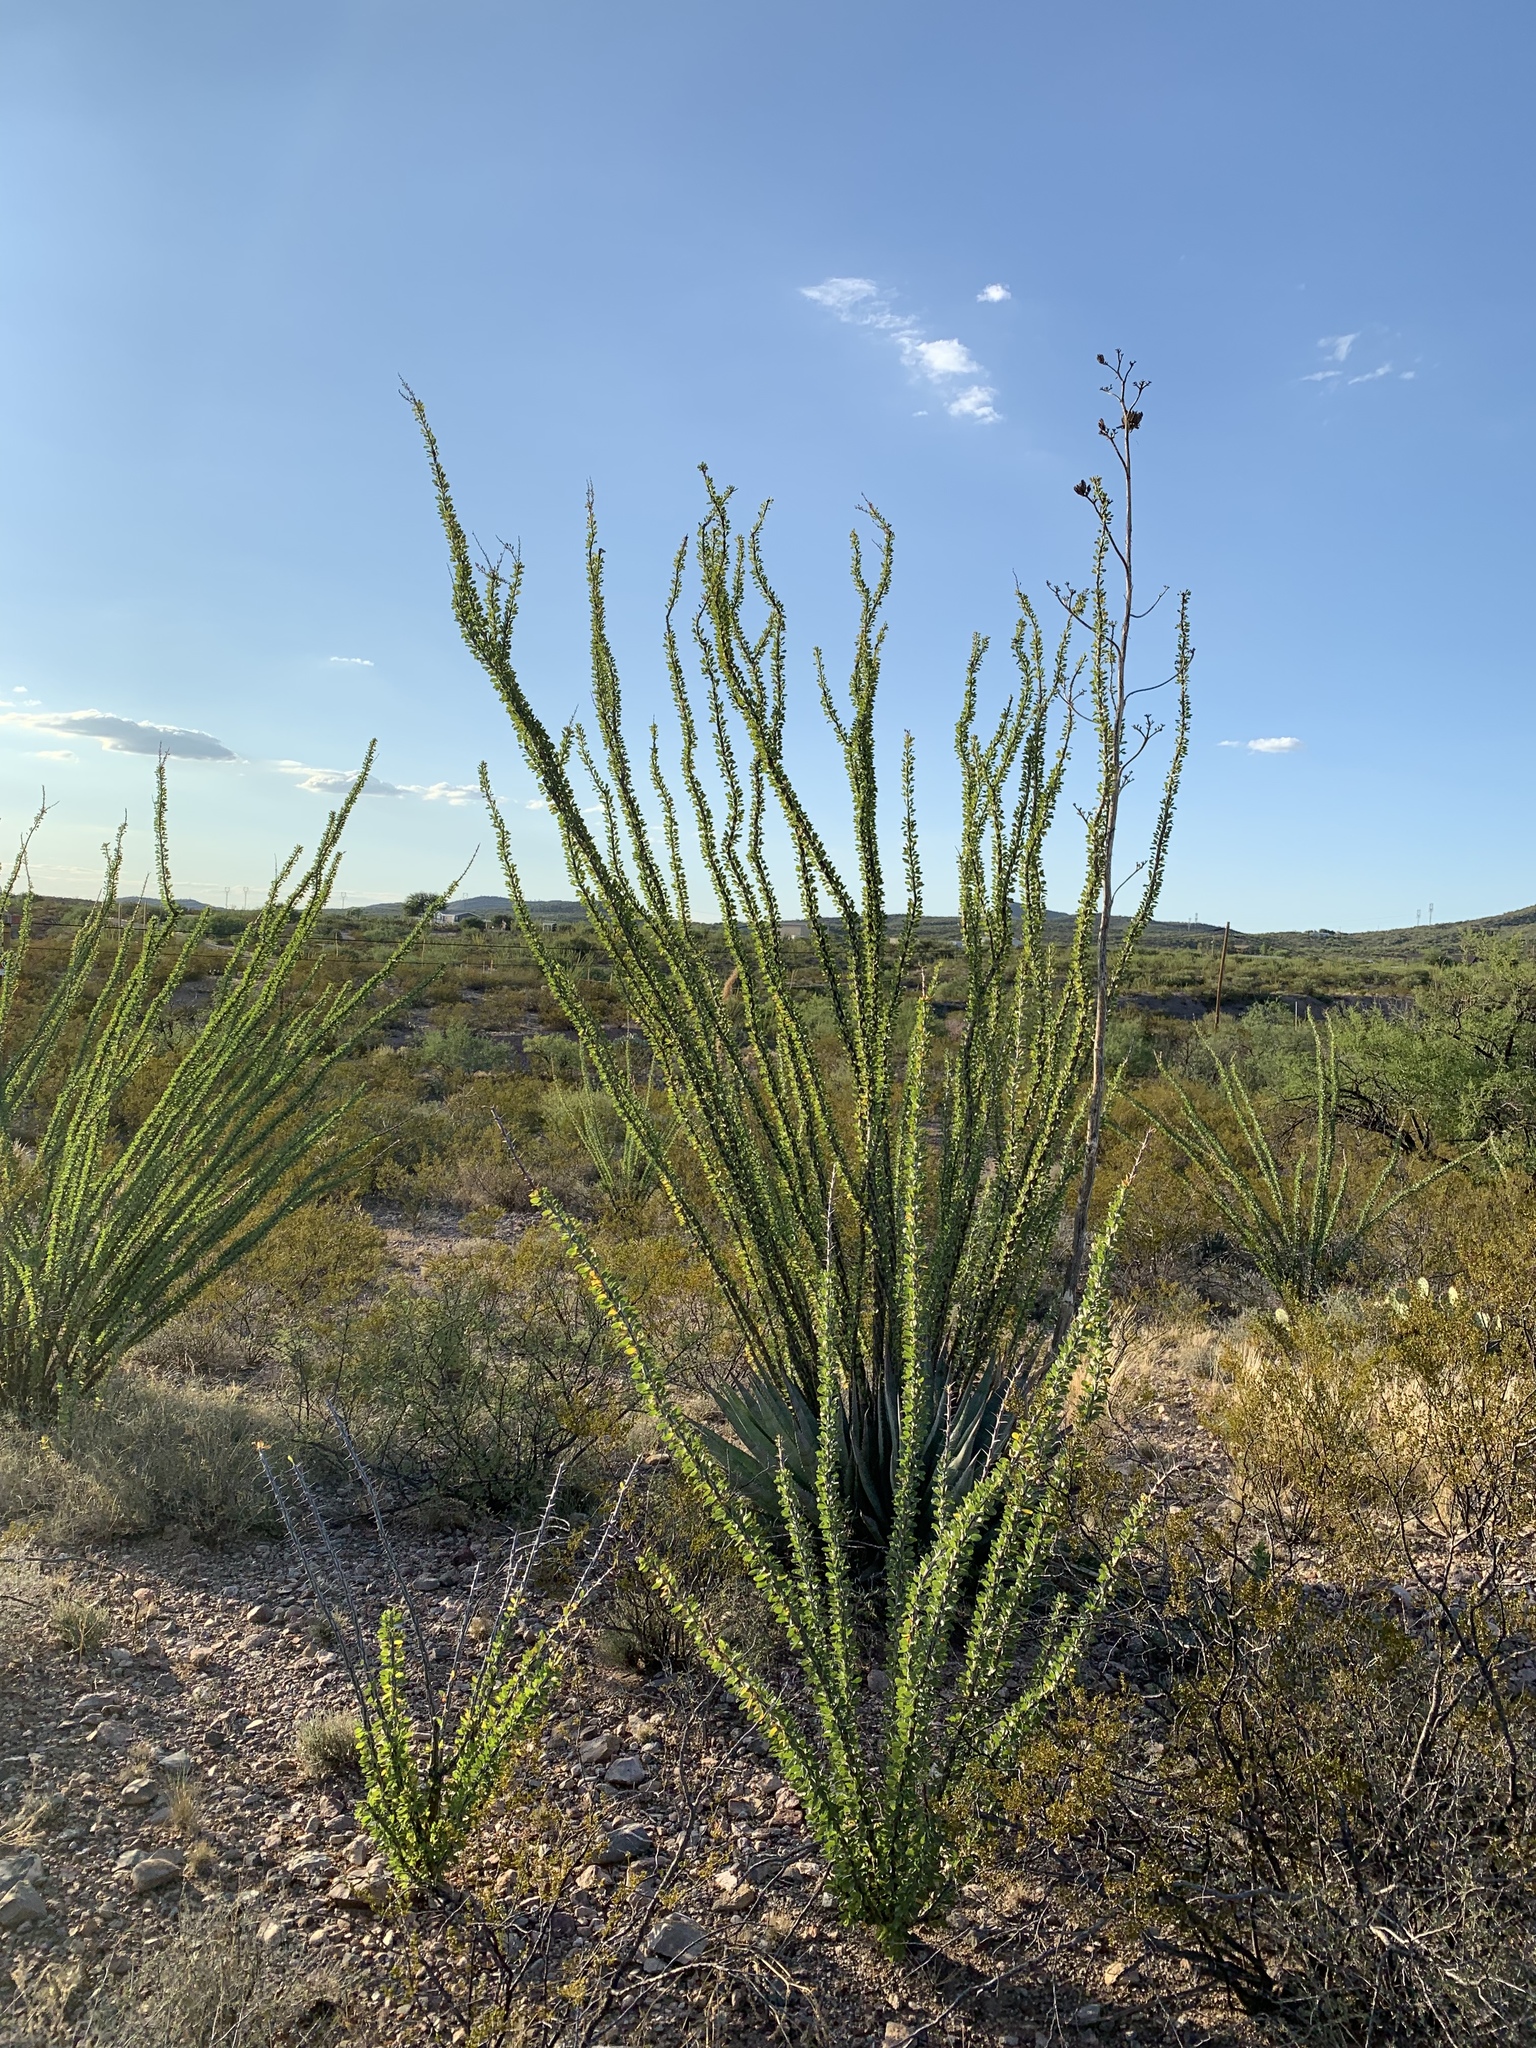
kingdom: Plantae
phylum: Tracheophyta
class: Magnoliopsida
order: Ericales
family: Fouquieriaceae
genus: Fouquieria
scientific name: Fouquieria splendens
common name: Vine-cactus
